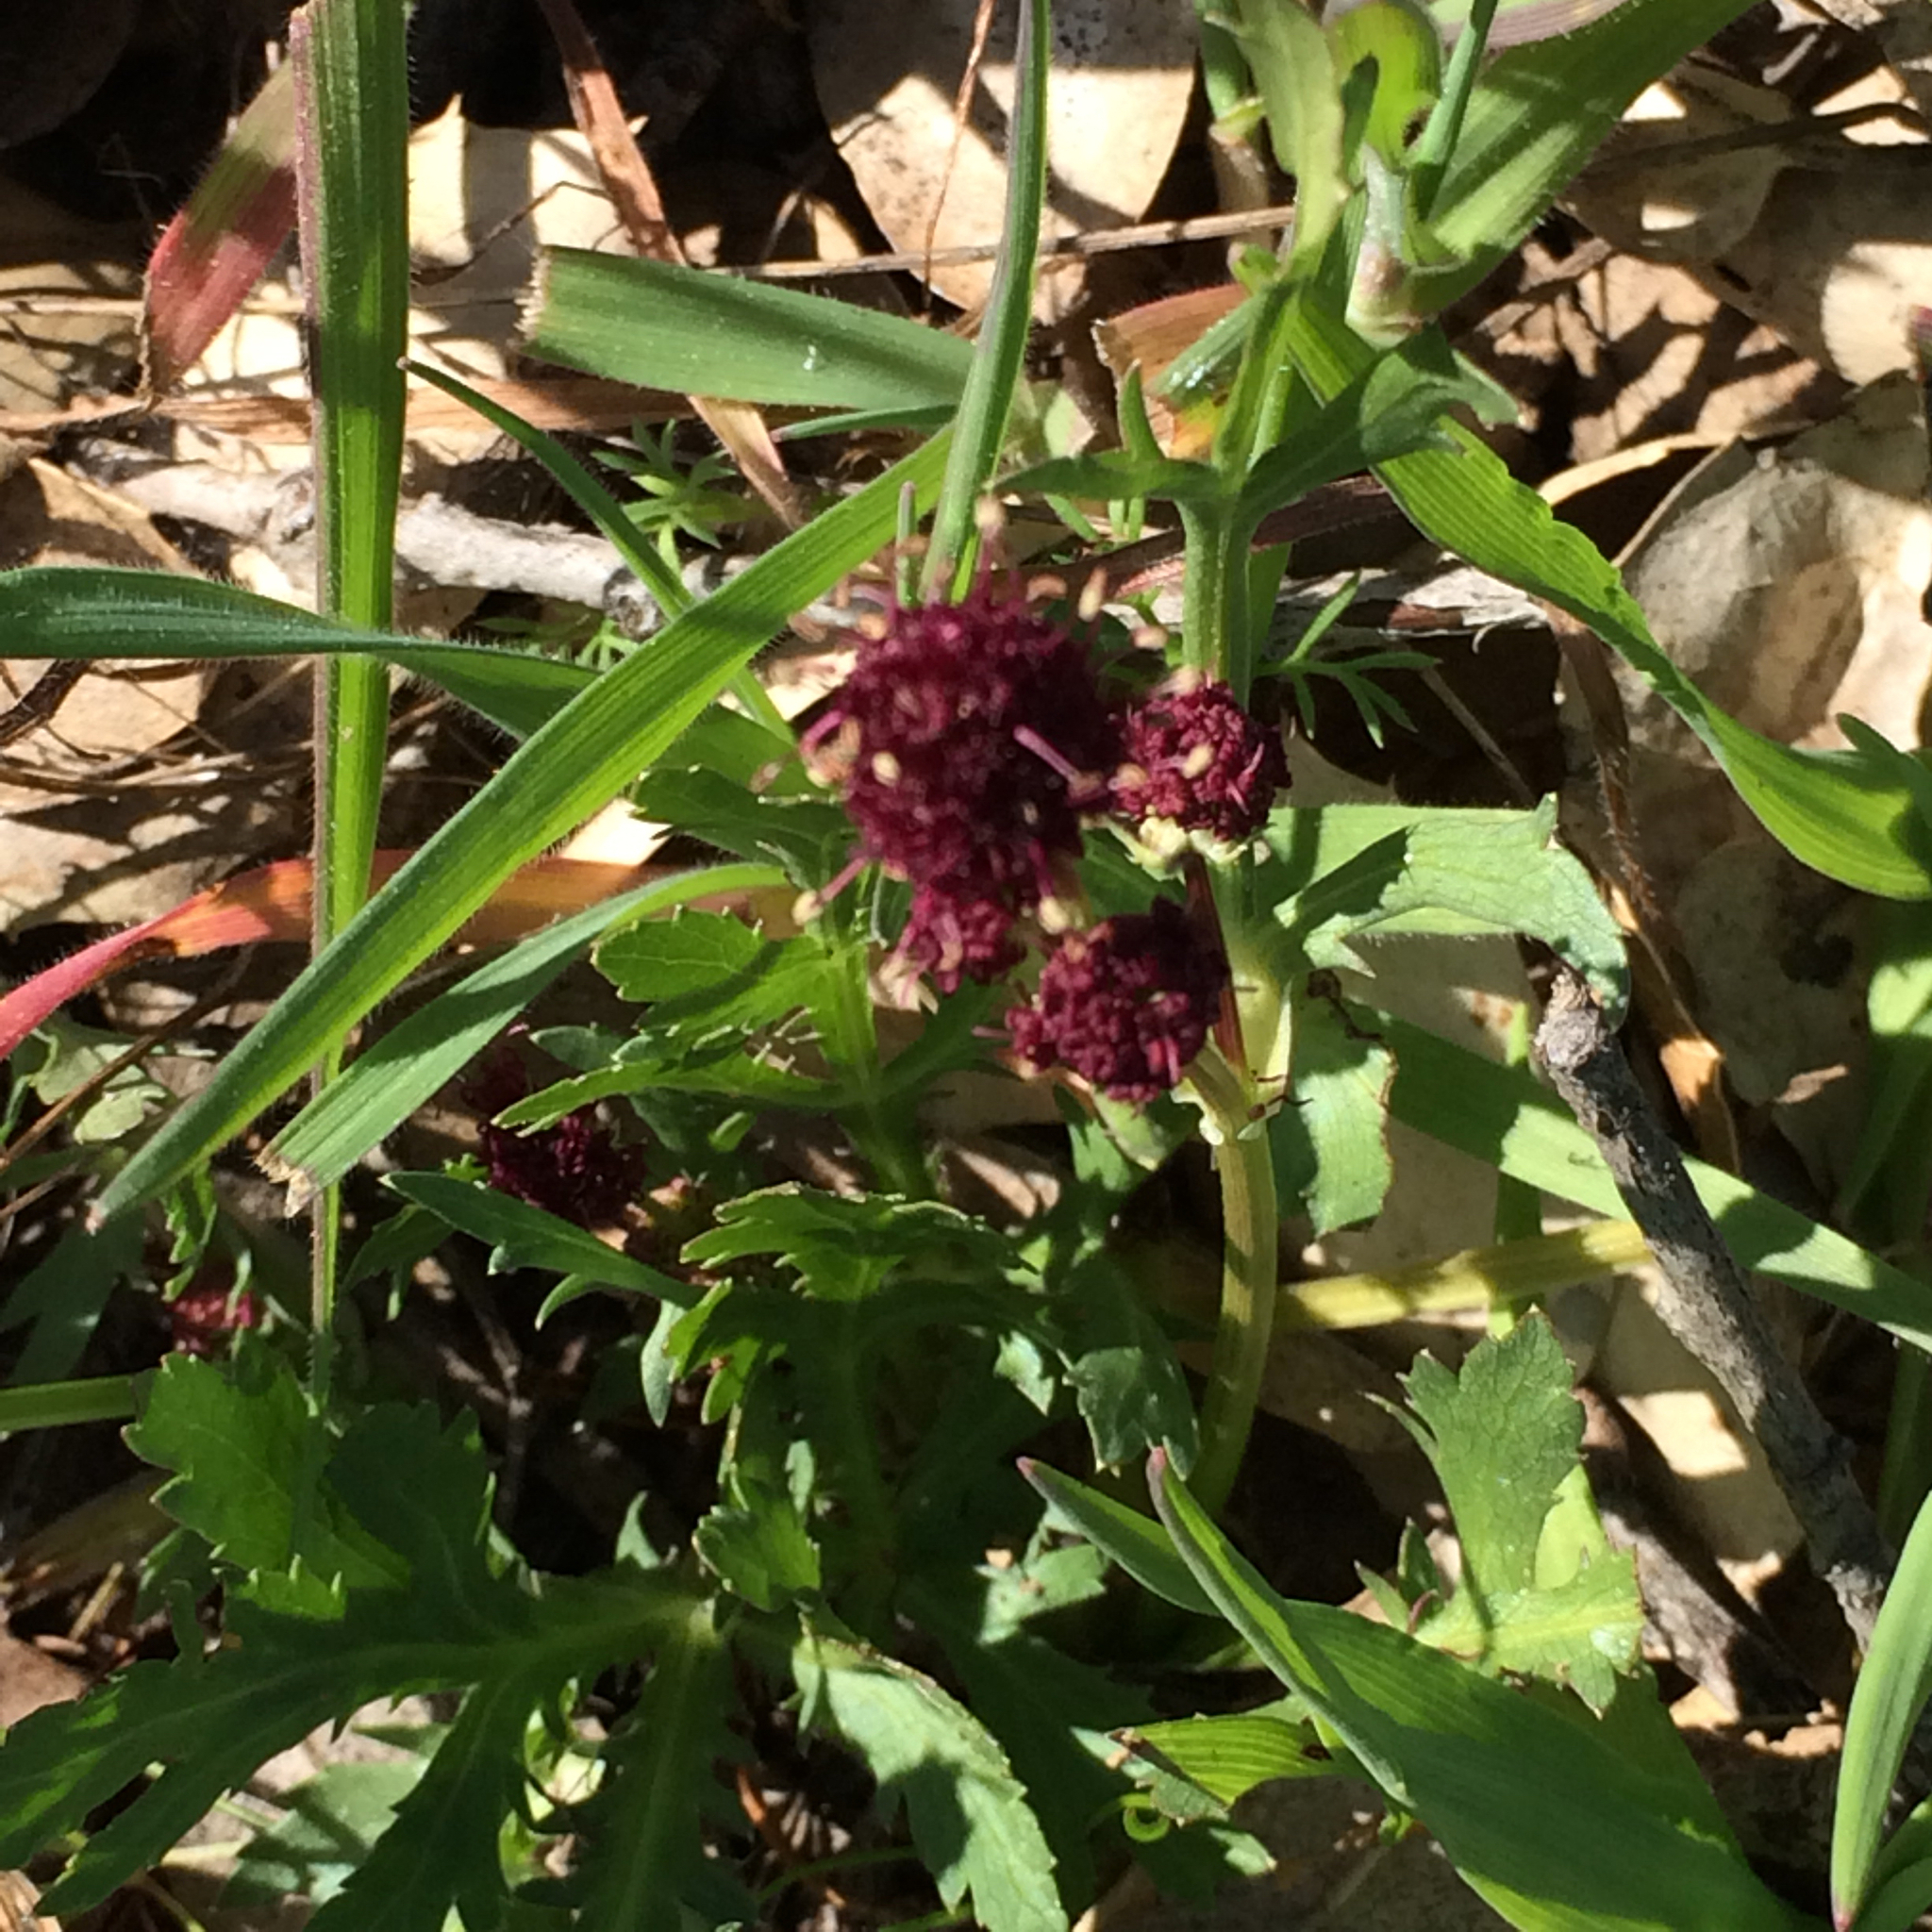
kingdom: Plantae
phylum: Tracheophyta
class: Magnoliopsida
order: Apiales
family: Apiaceae
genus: Sanicula
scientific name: Sanicula bipinnatifida
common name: Shoe-buttons
